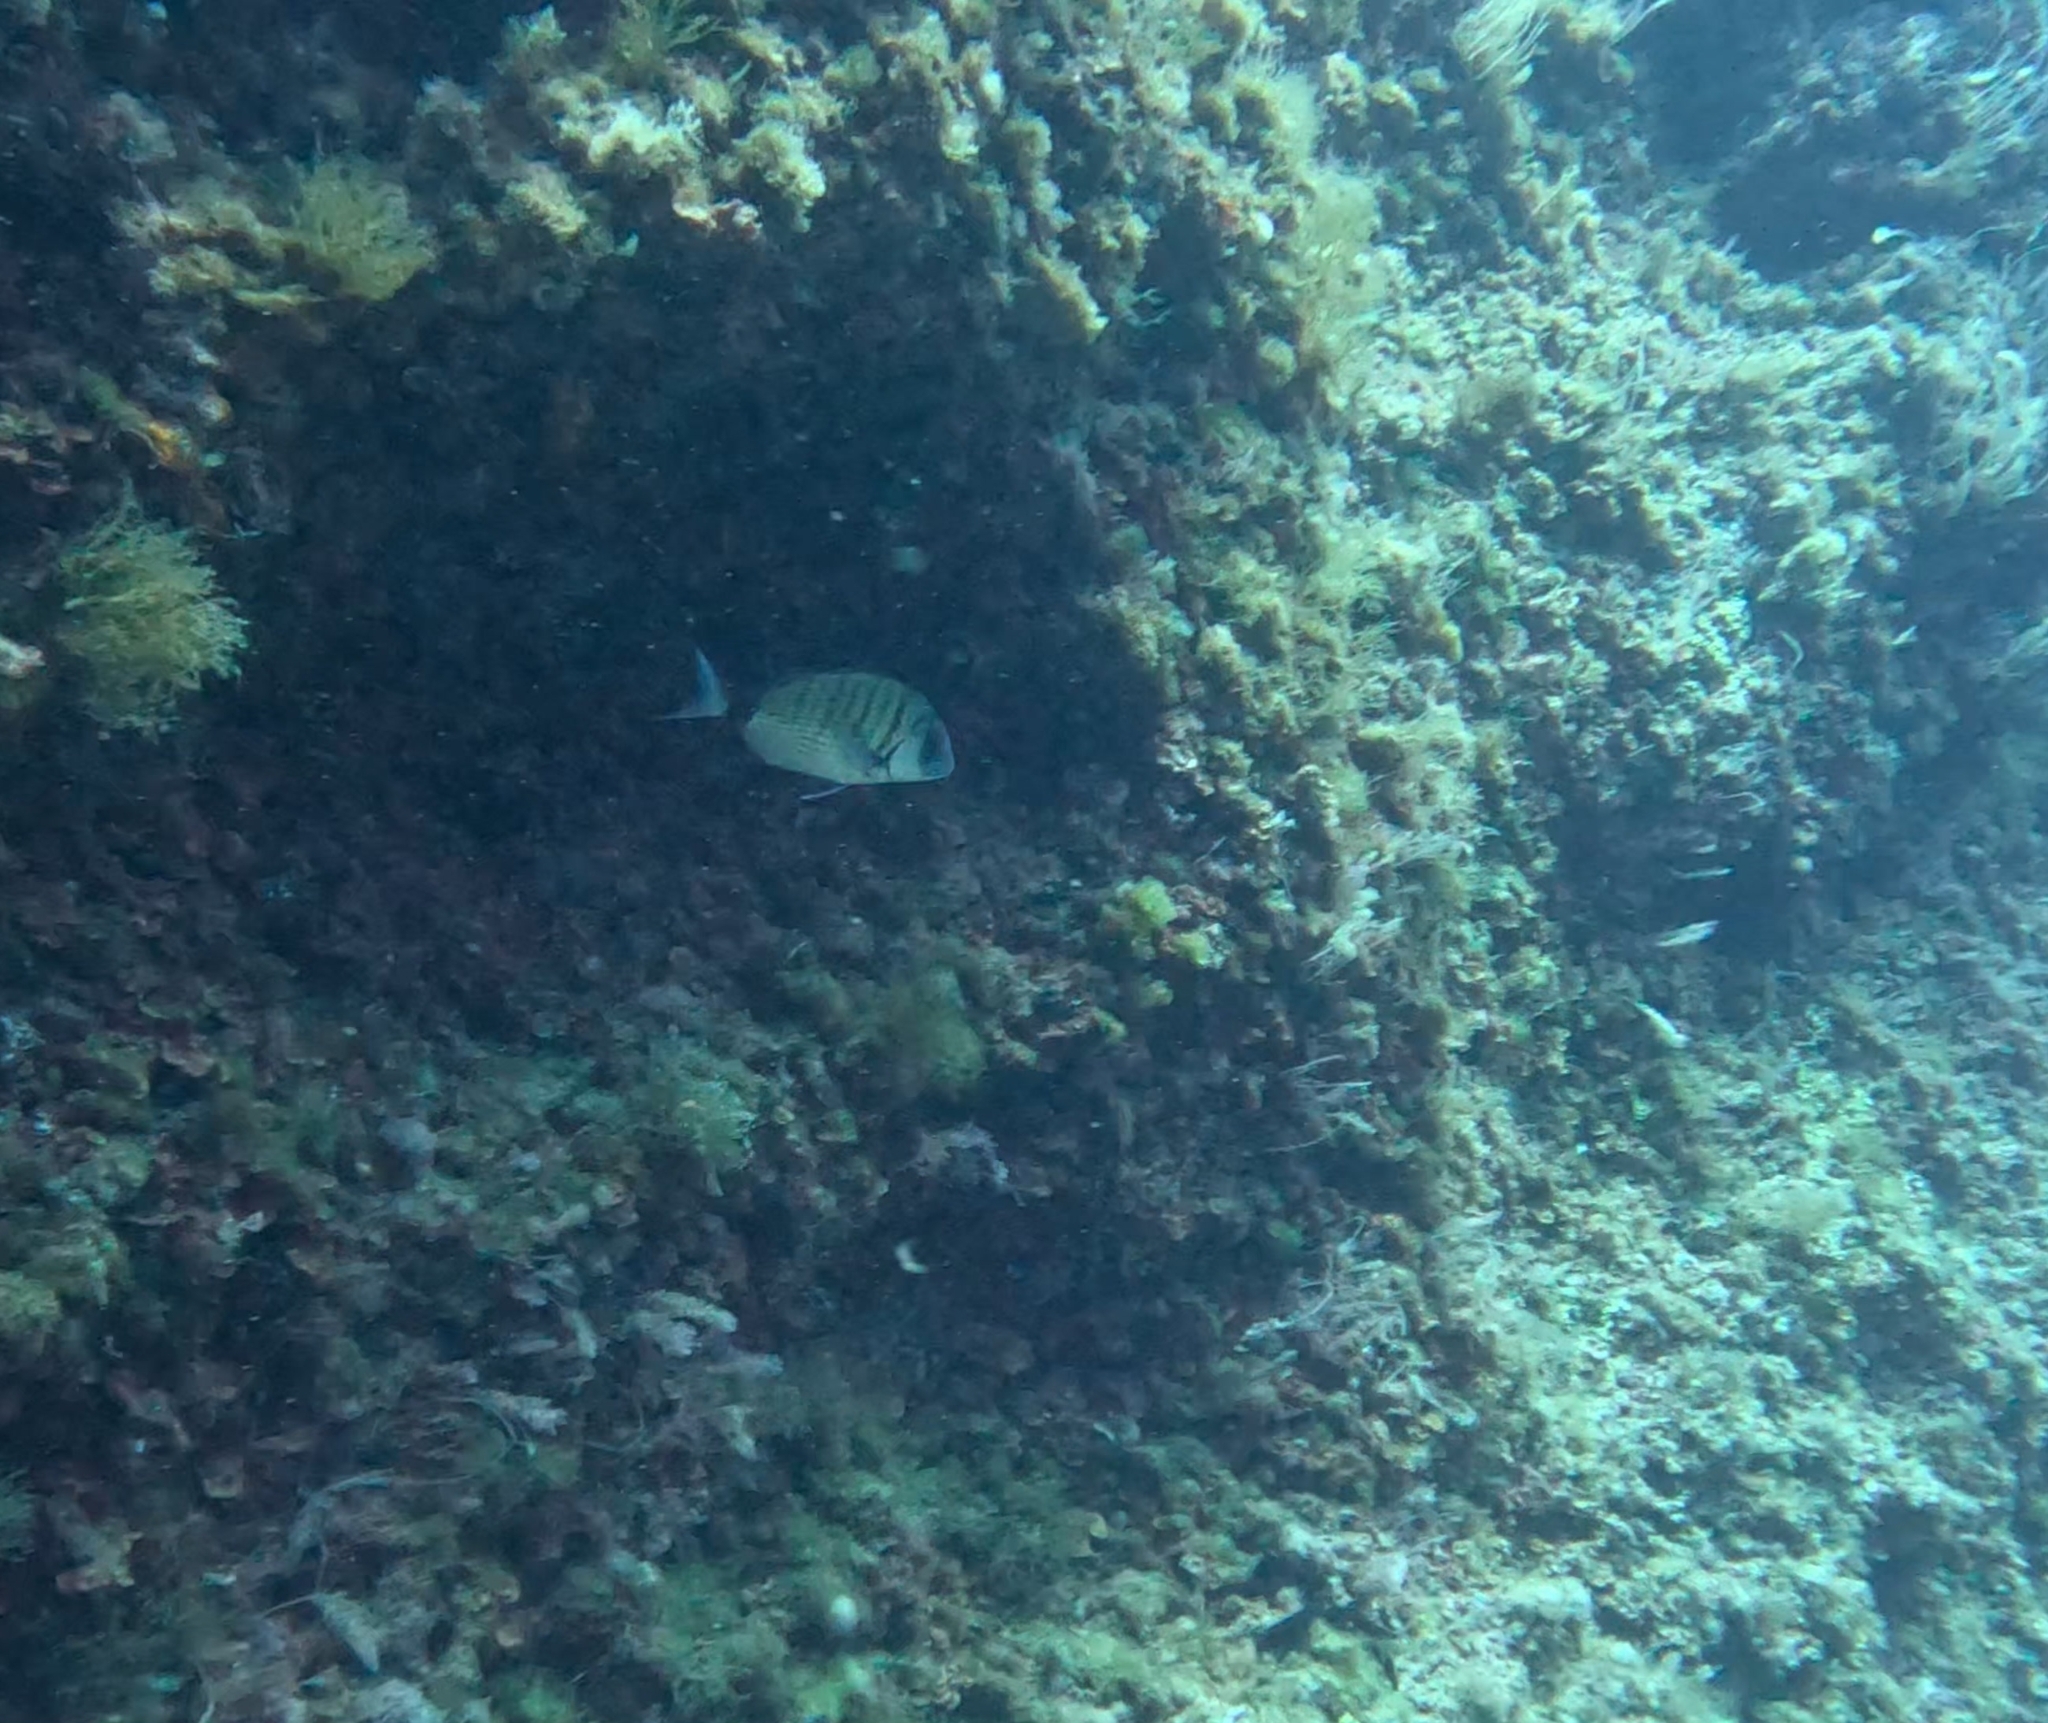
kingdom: Animalia
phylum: Chordata
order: Perciformes
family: Sparidae
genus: Diplodus
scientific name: Diplodus sargus
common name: White seabream
